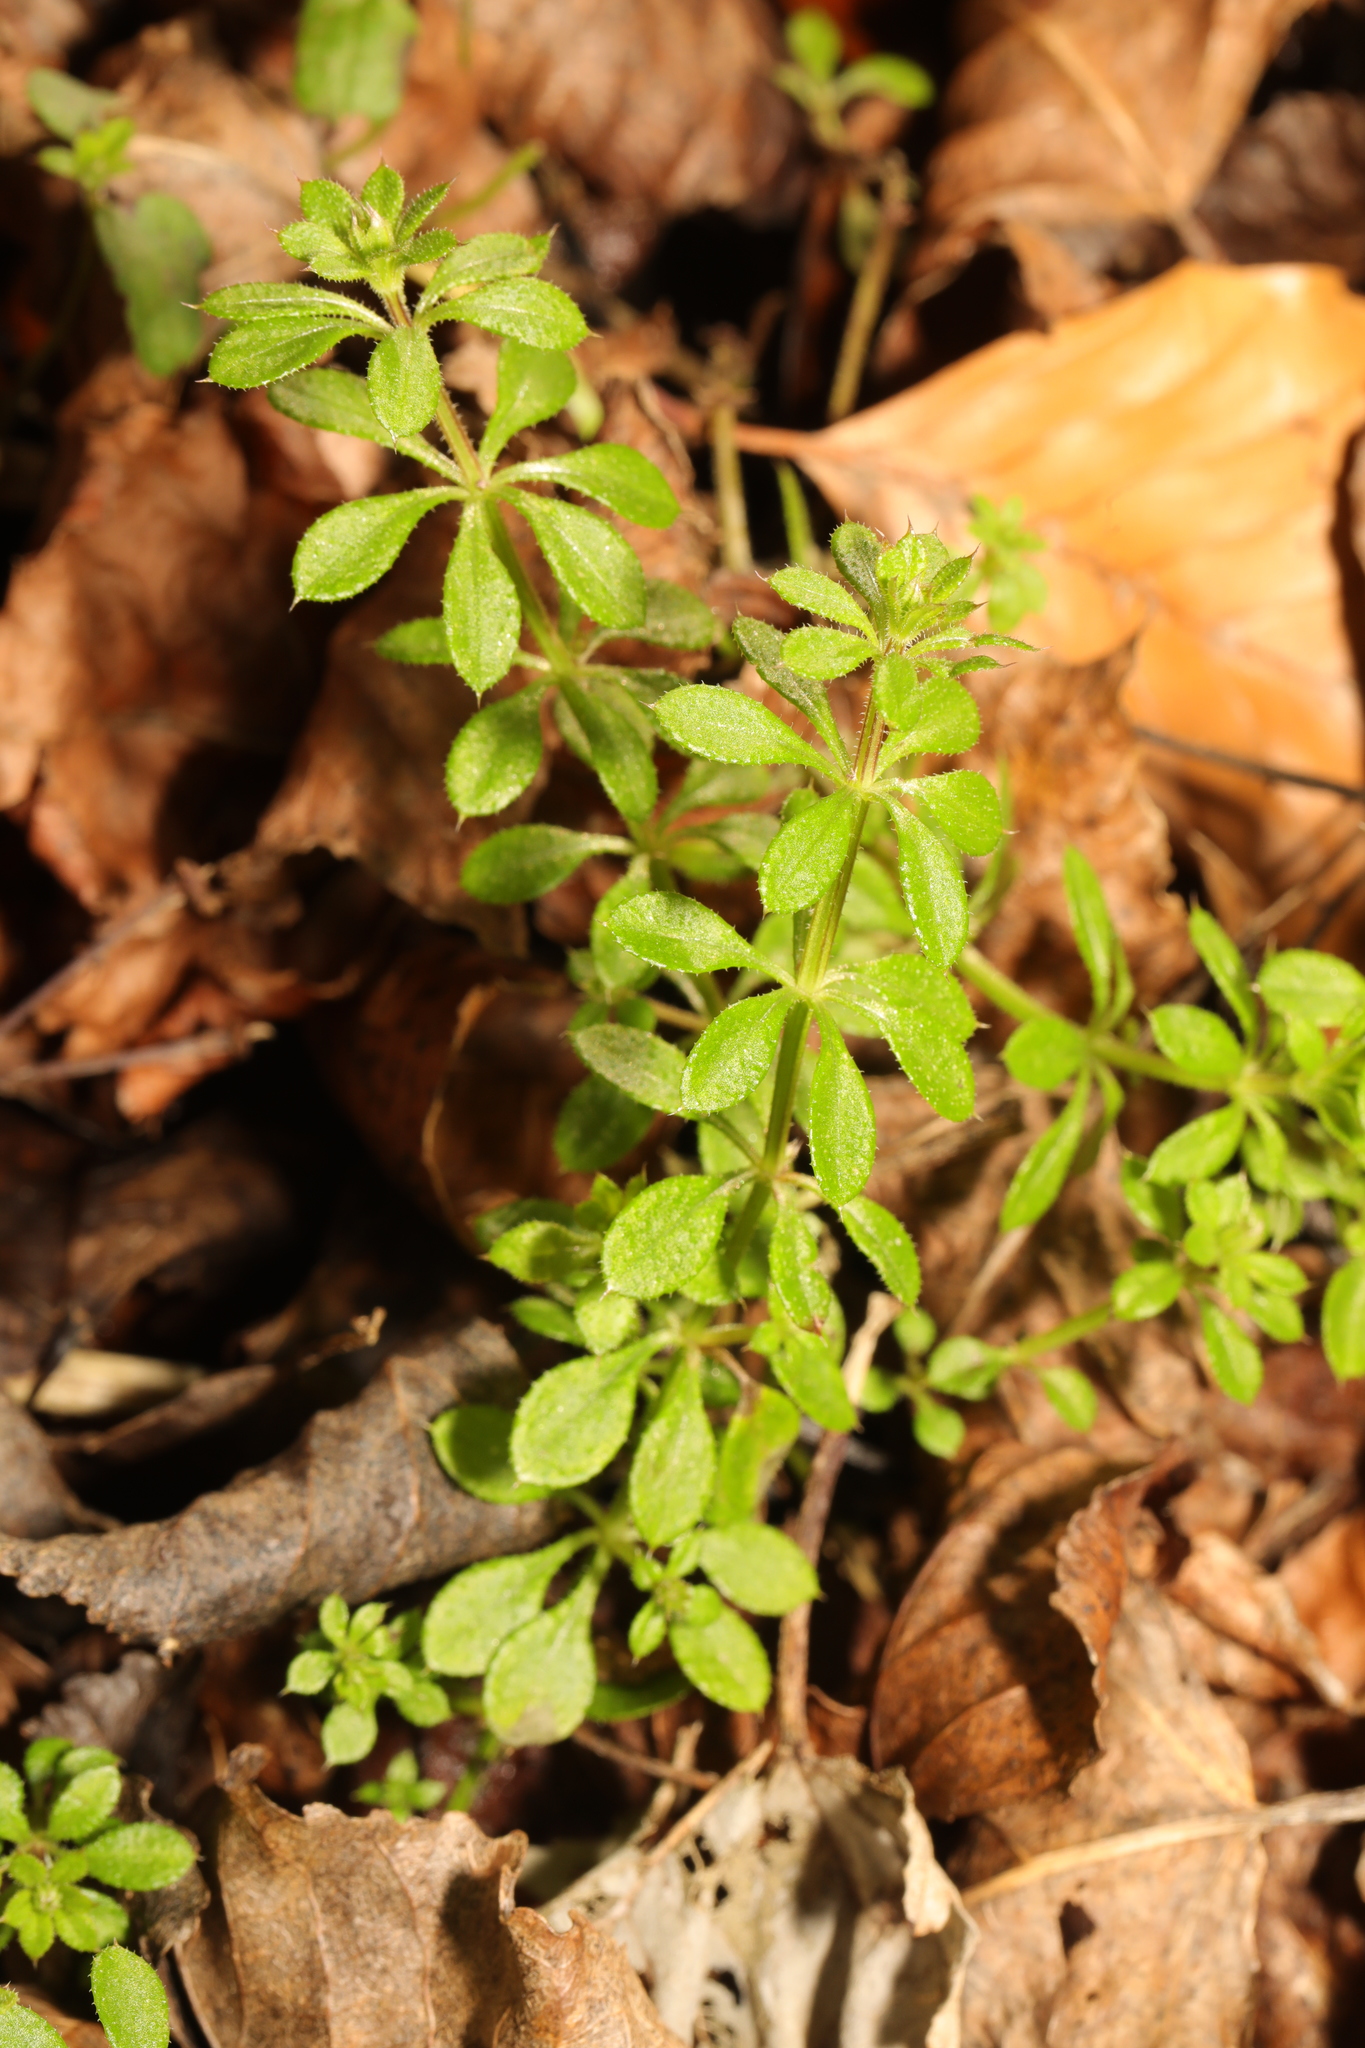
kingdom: Plantae
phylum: Tracheophyta
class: Magnoliopsida
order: Gentianales
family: Rubiaceae
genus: Galium
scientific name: Galium aparine
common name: Cleavers
